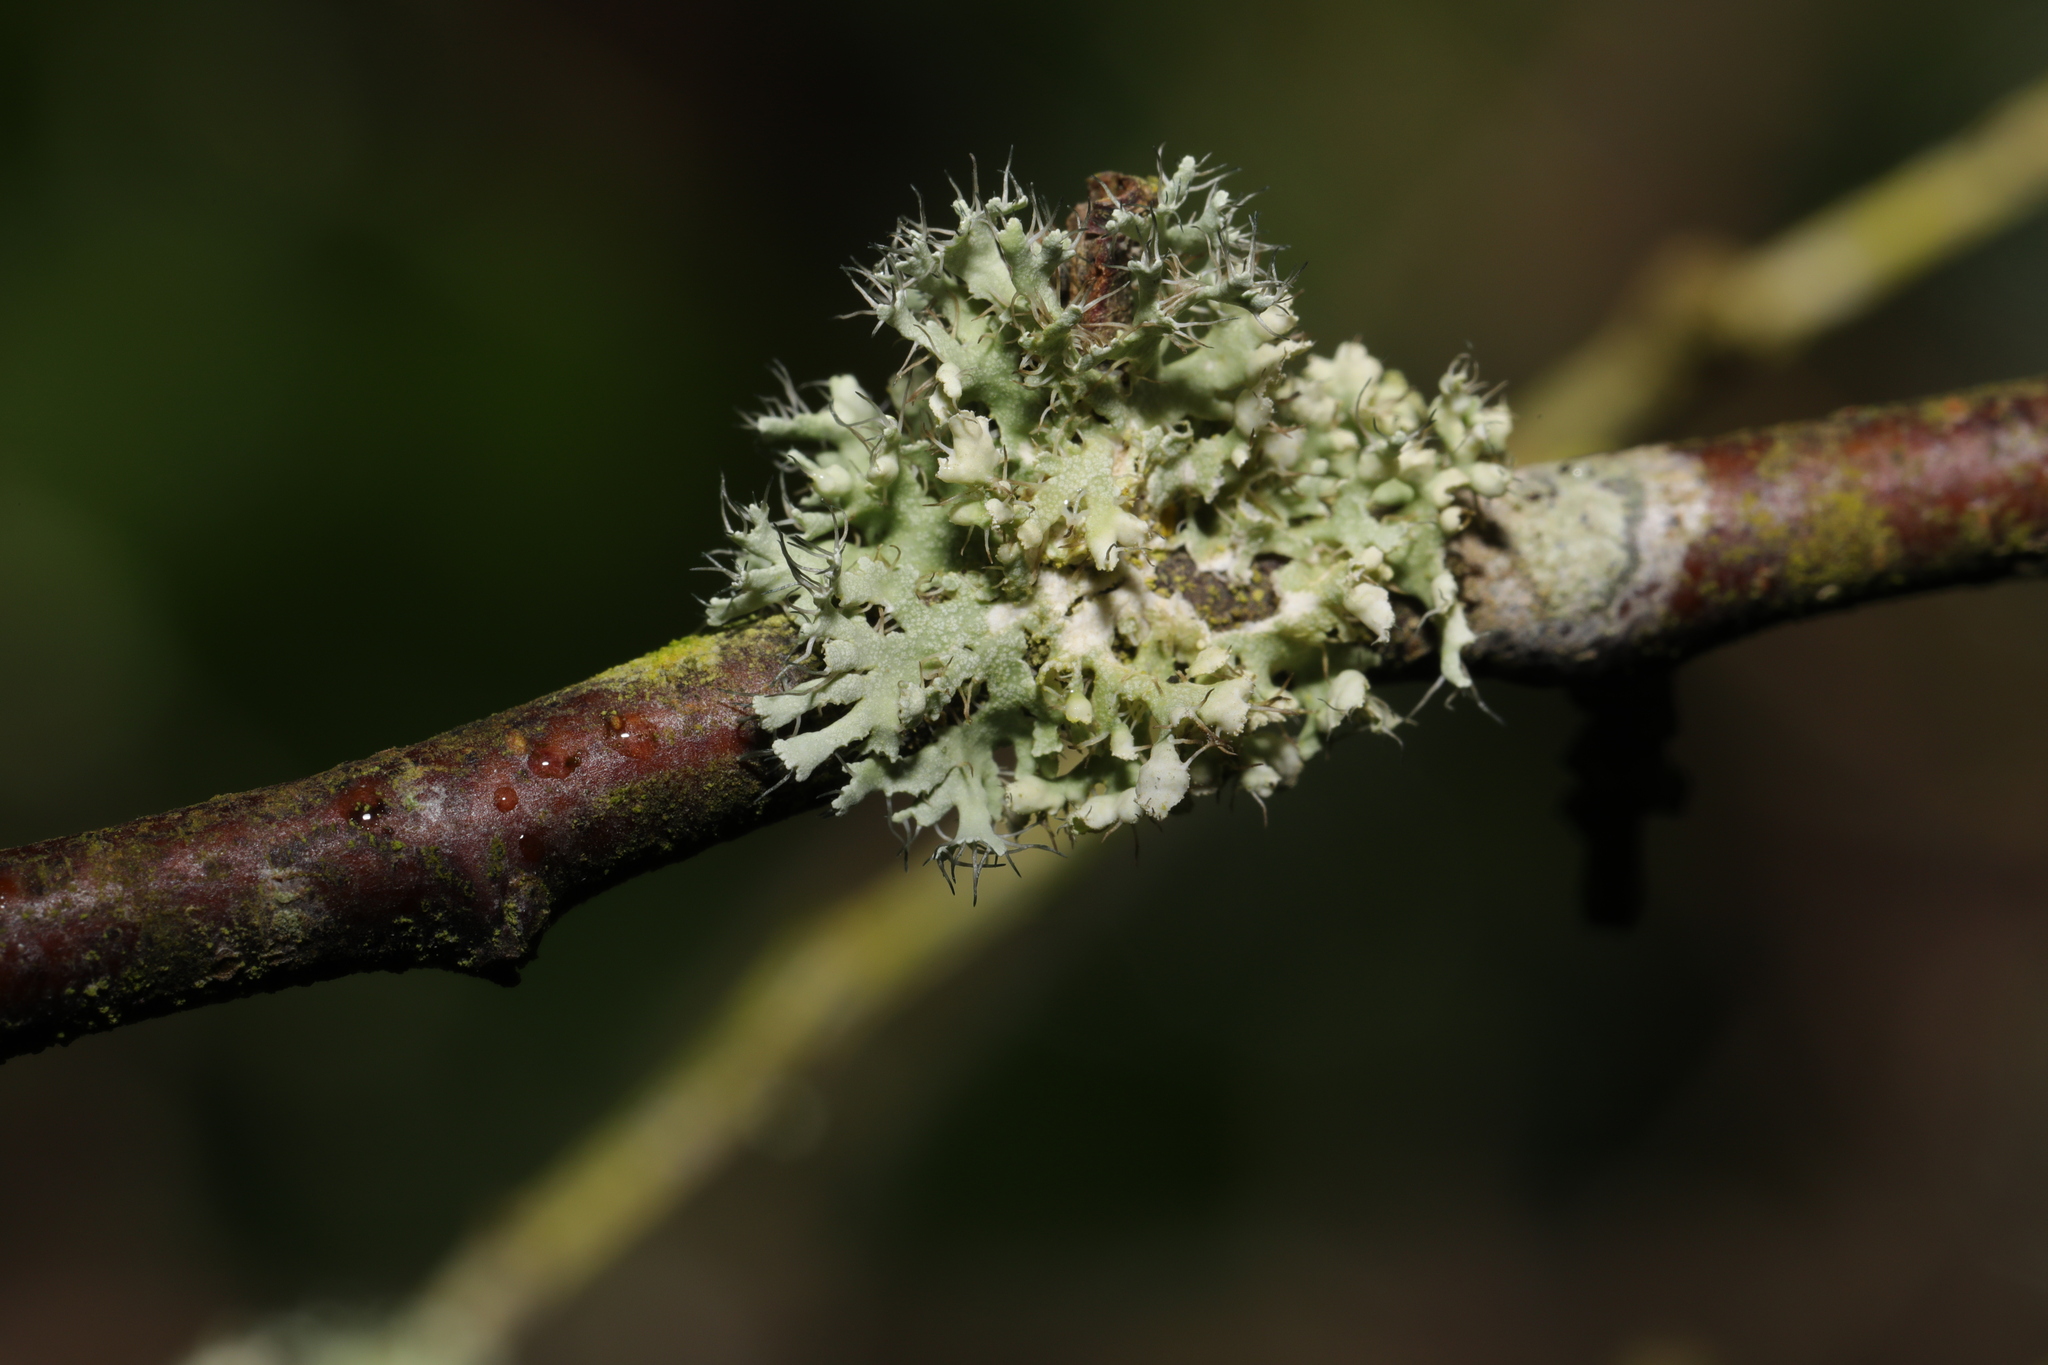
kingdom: Fungi
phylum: Ascomycota
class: Lecanoromycetes
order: Caliciales
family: Physciaceae
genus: Physcia
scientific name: Physcia adscendens
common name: Hooded rosette lichen
